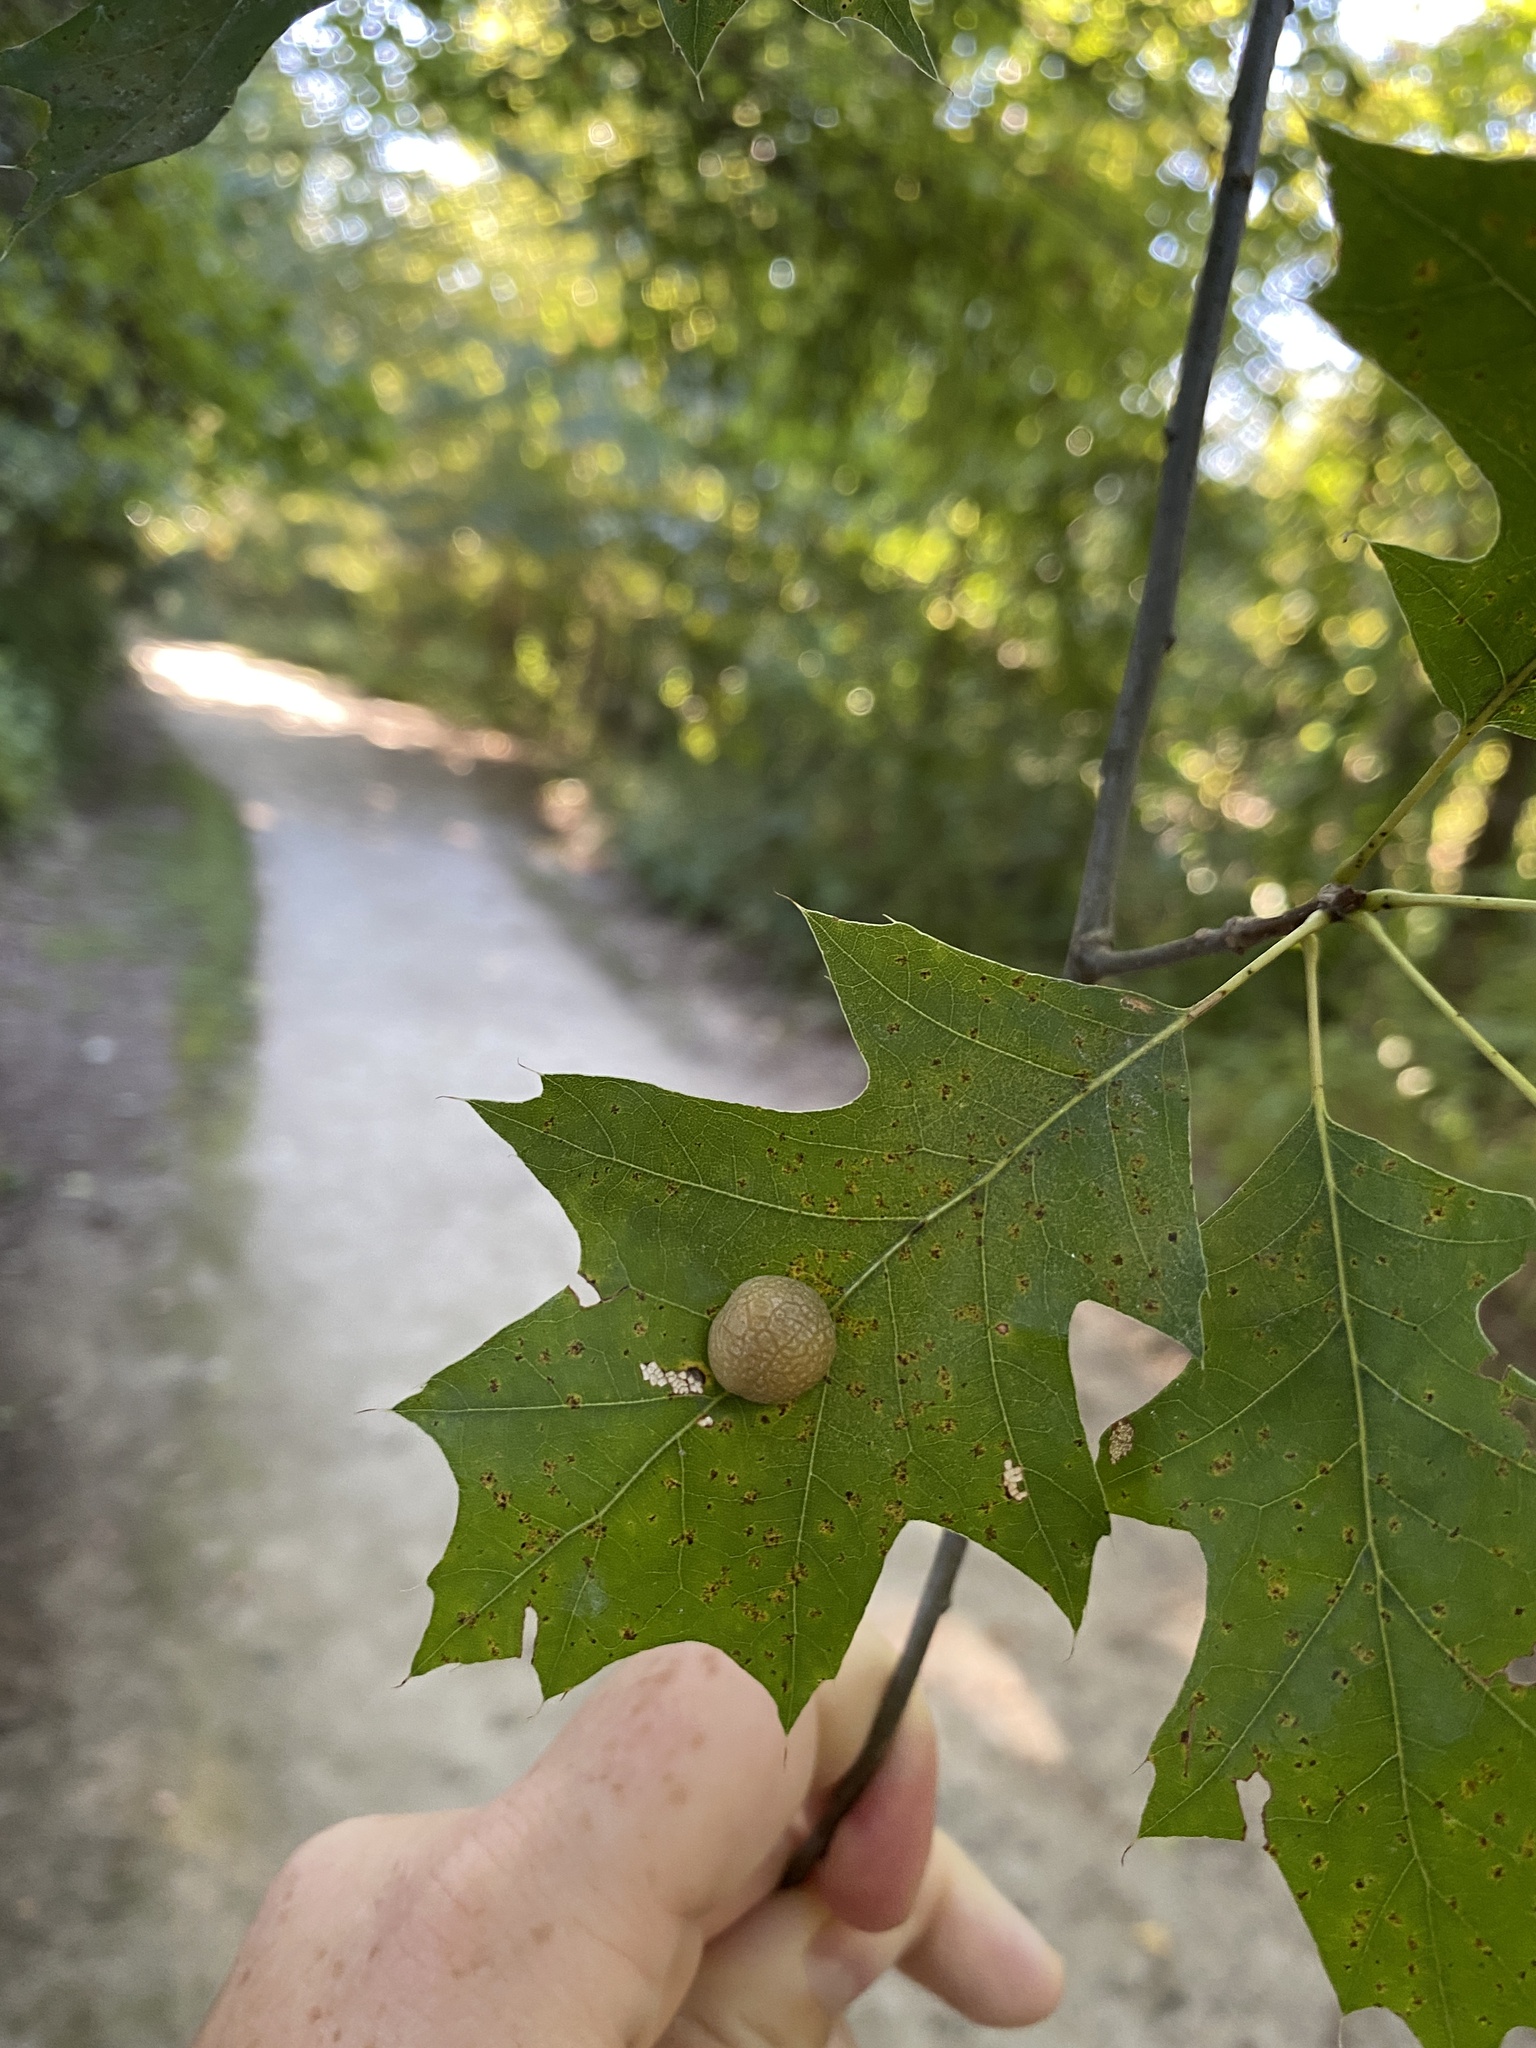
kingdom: Animalia
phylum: Arthropoda
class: Insecta
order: Diptera
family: Cecidomyiidae
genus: Polystepha
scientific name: Polystepha pilulae
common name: Oak leaf gall midge
